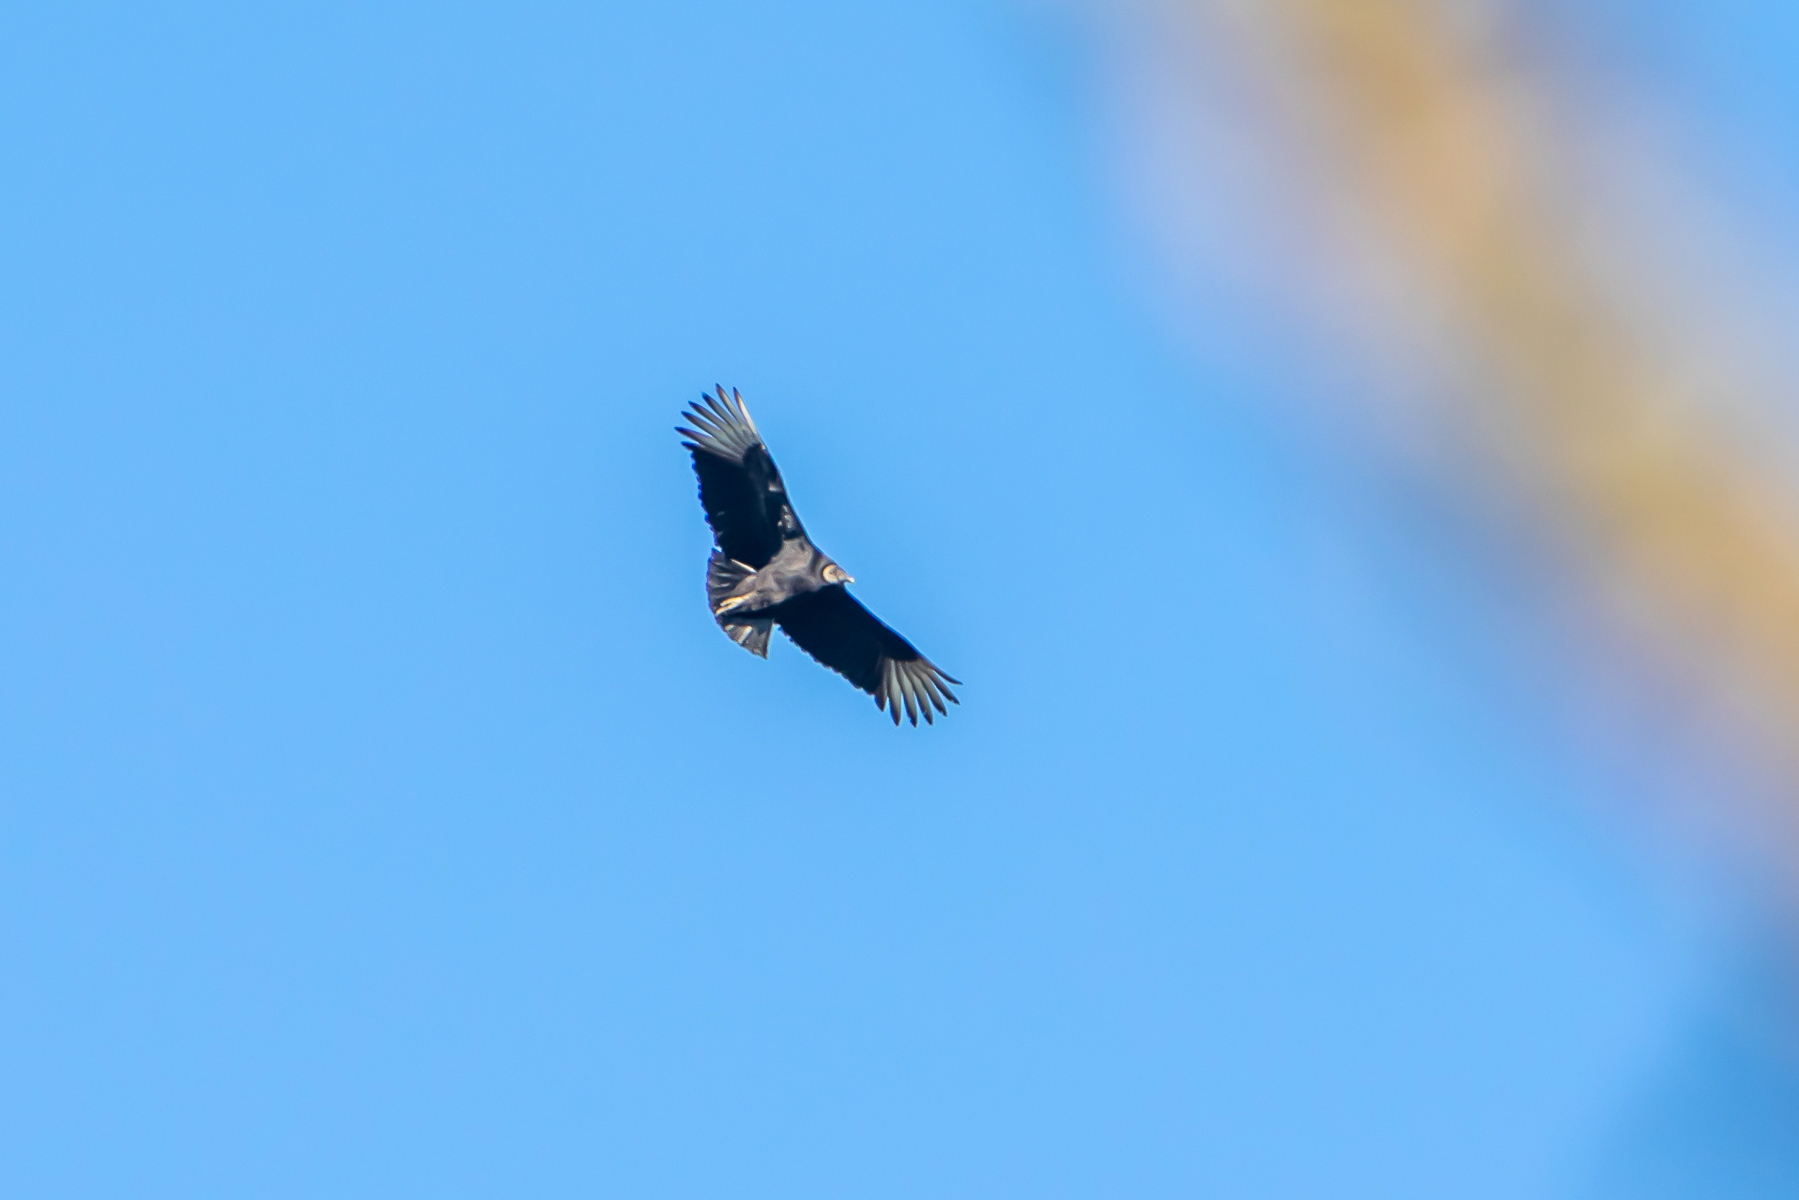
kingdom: Animalia
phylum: Chordata
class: Aves
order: Accipitriformes
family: Cathartidae
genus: Coragyps
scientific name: Coragyps atratus
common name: Black vulture
